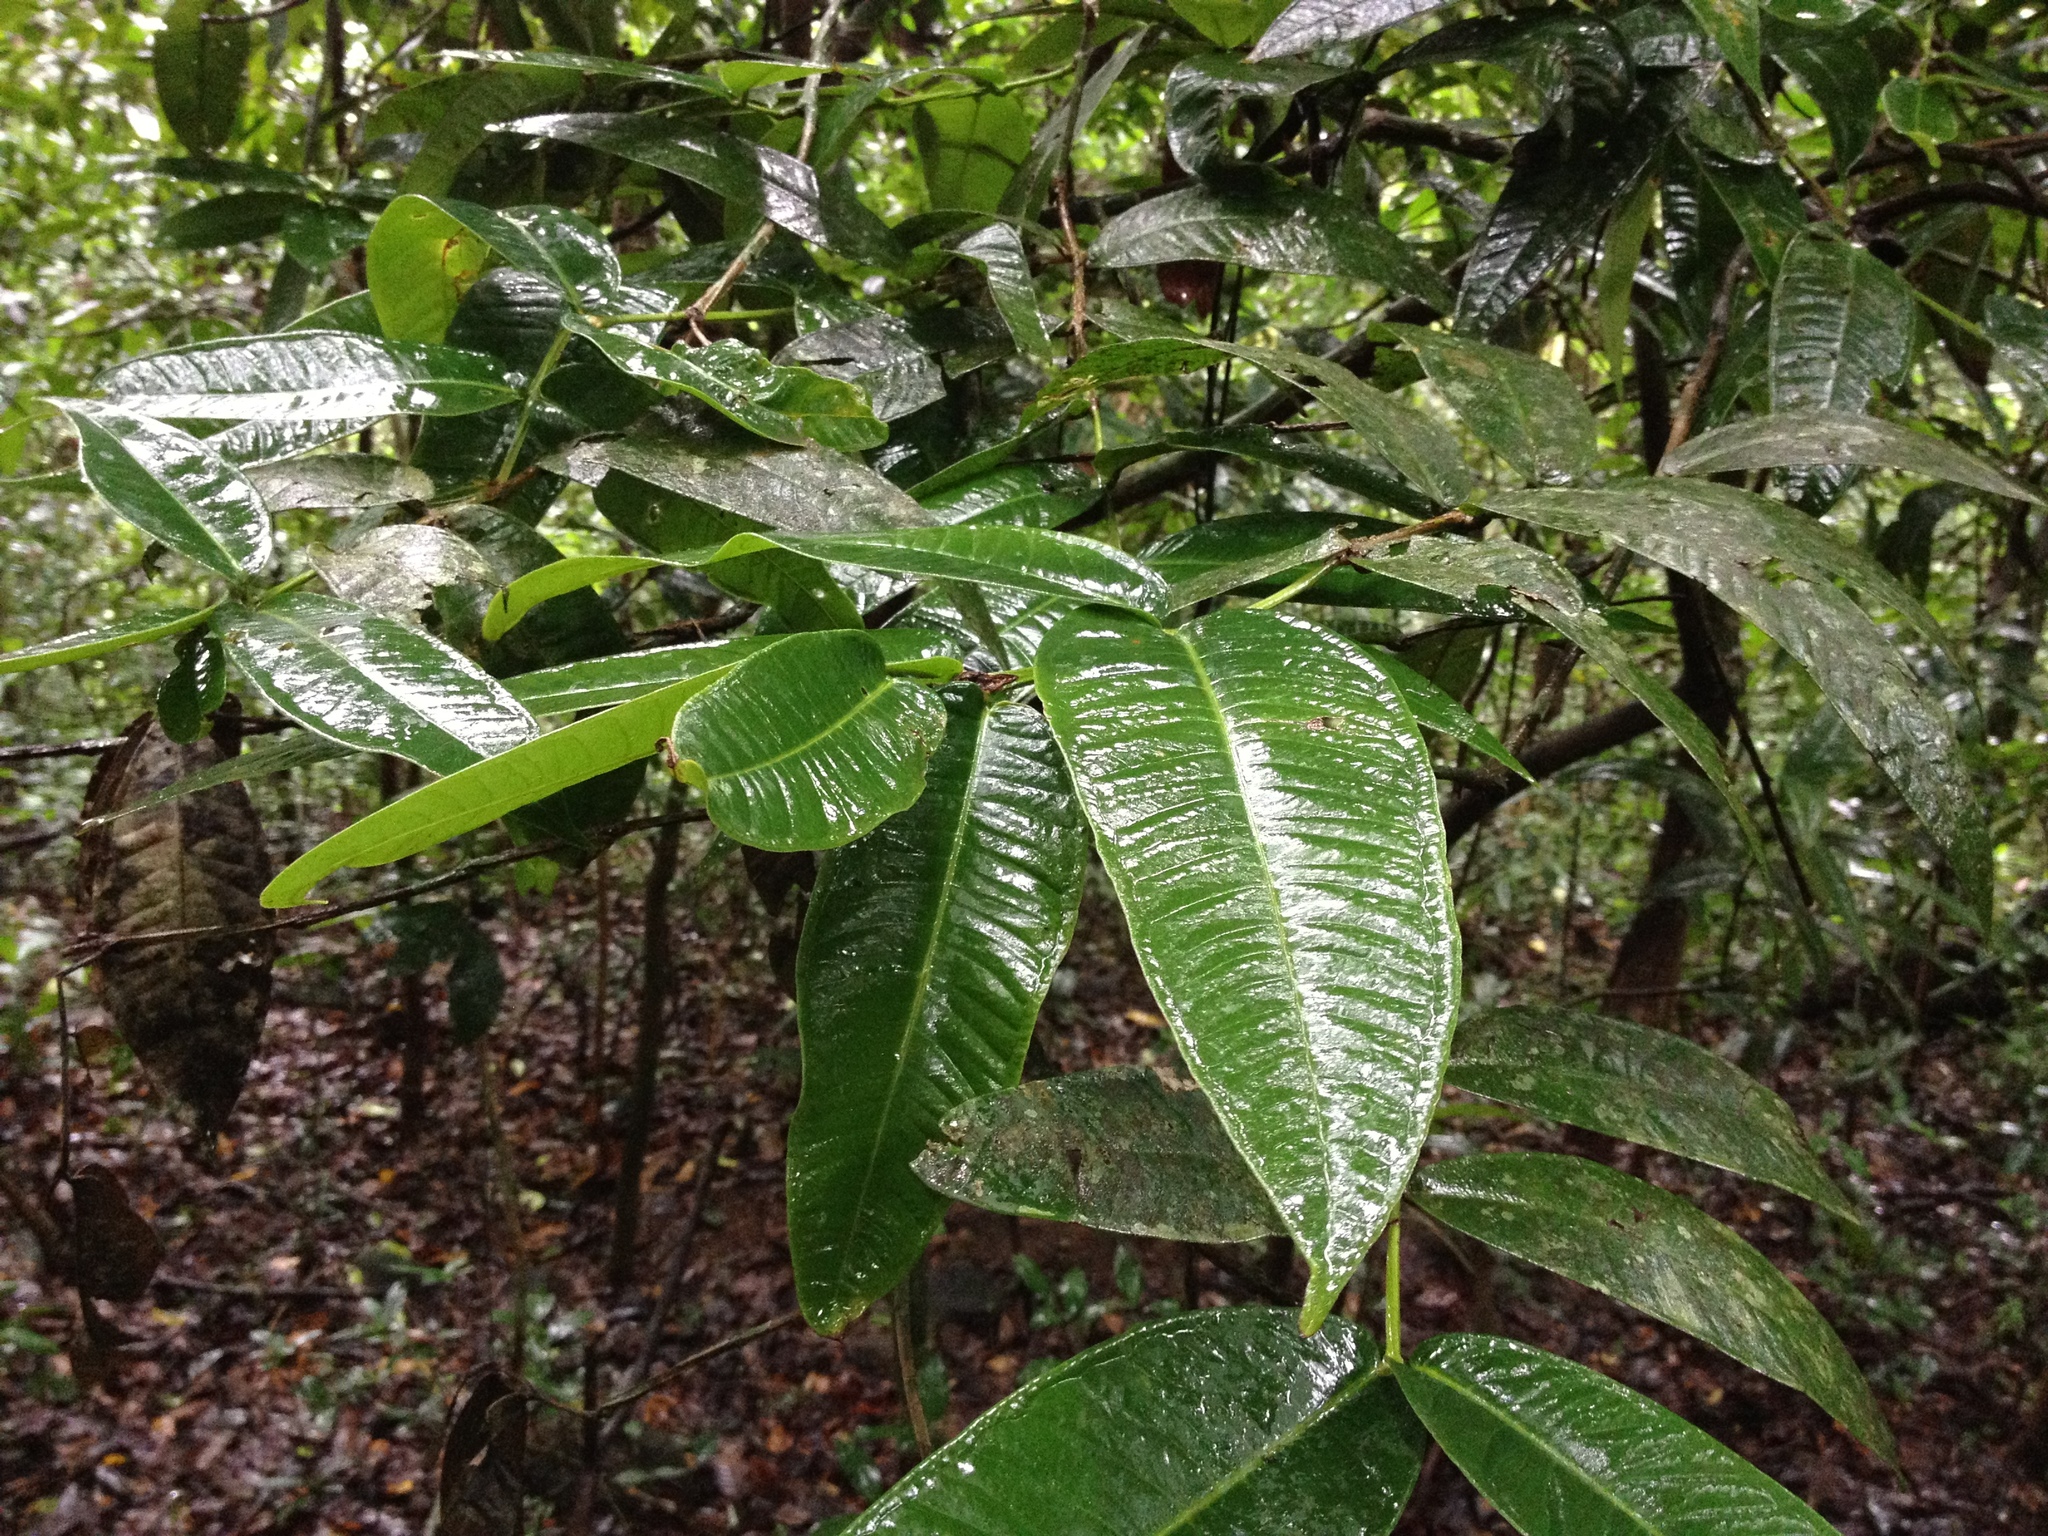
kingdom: Plantae
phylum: Tracheophyta
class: Magnoliopsida
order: Myrtales
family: Myrtaceae
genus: Syzygium
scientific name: Syzygium munronii
